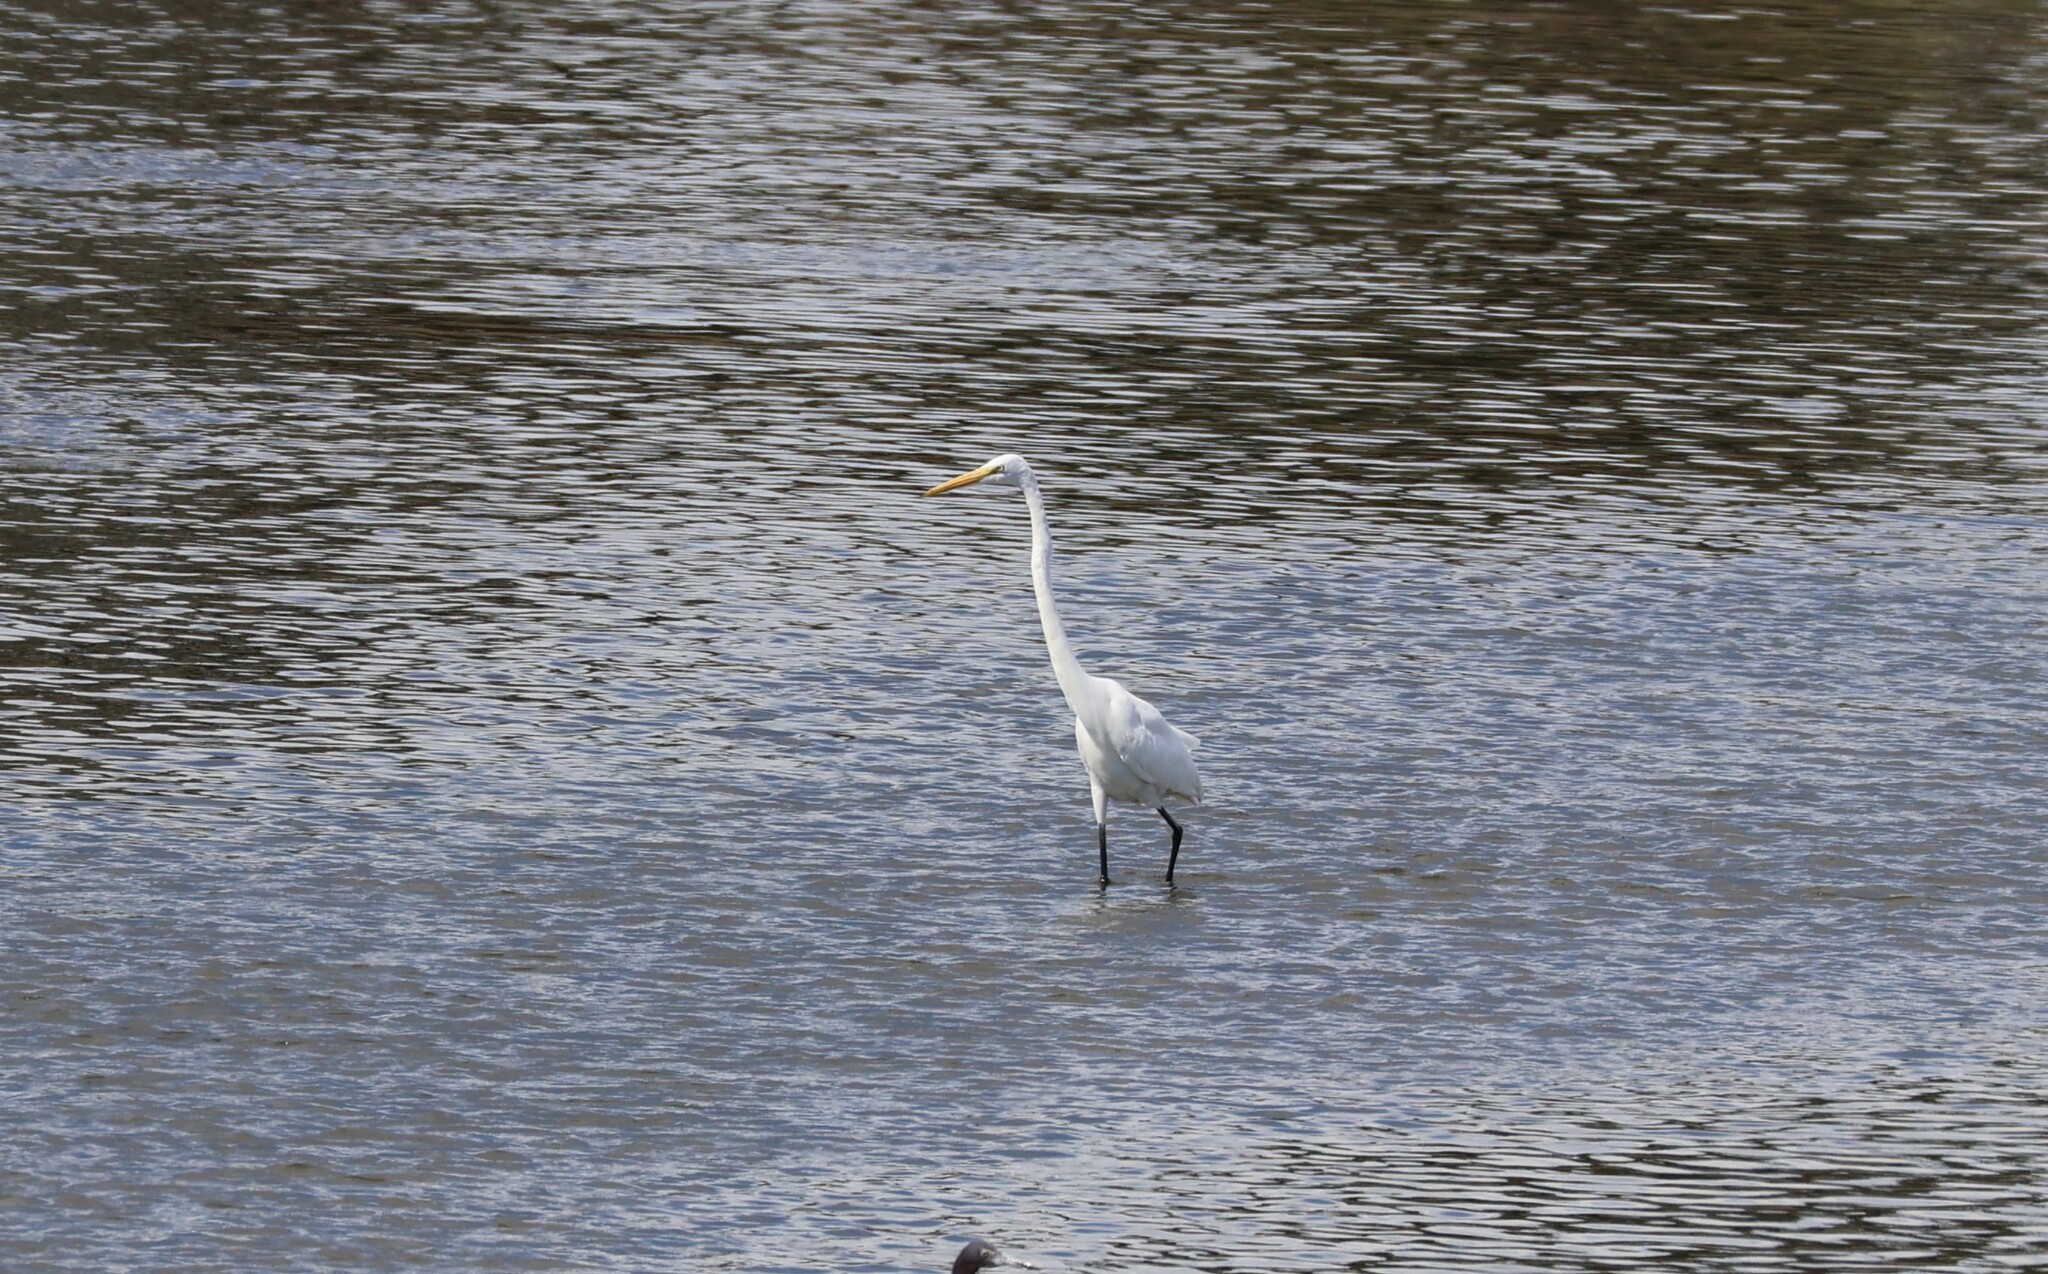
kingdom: Animalia
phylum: Chordata
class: Aves
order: Pelecaniformes
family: Ardeidae
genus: Ardea
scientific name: Ardea alba
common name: Great egret
